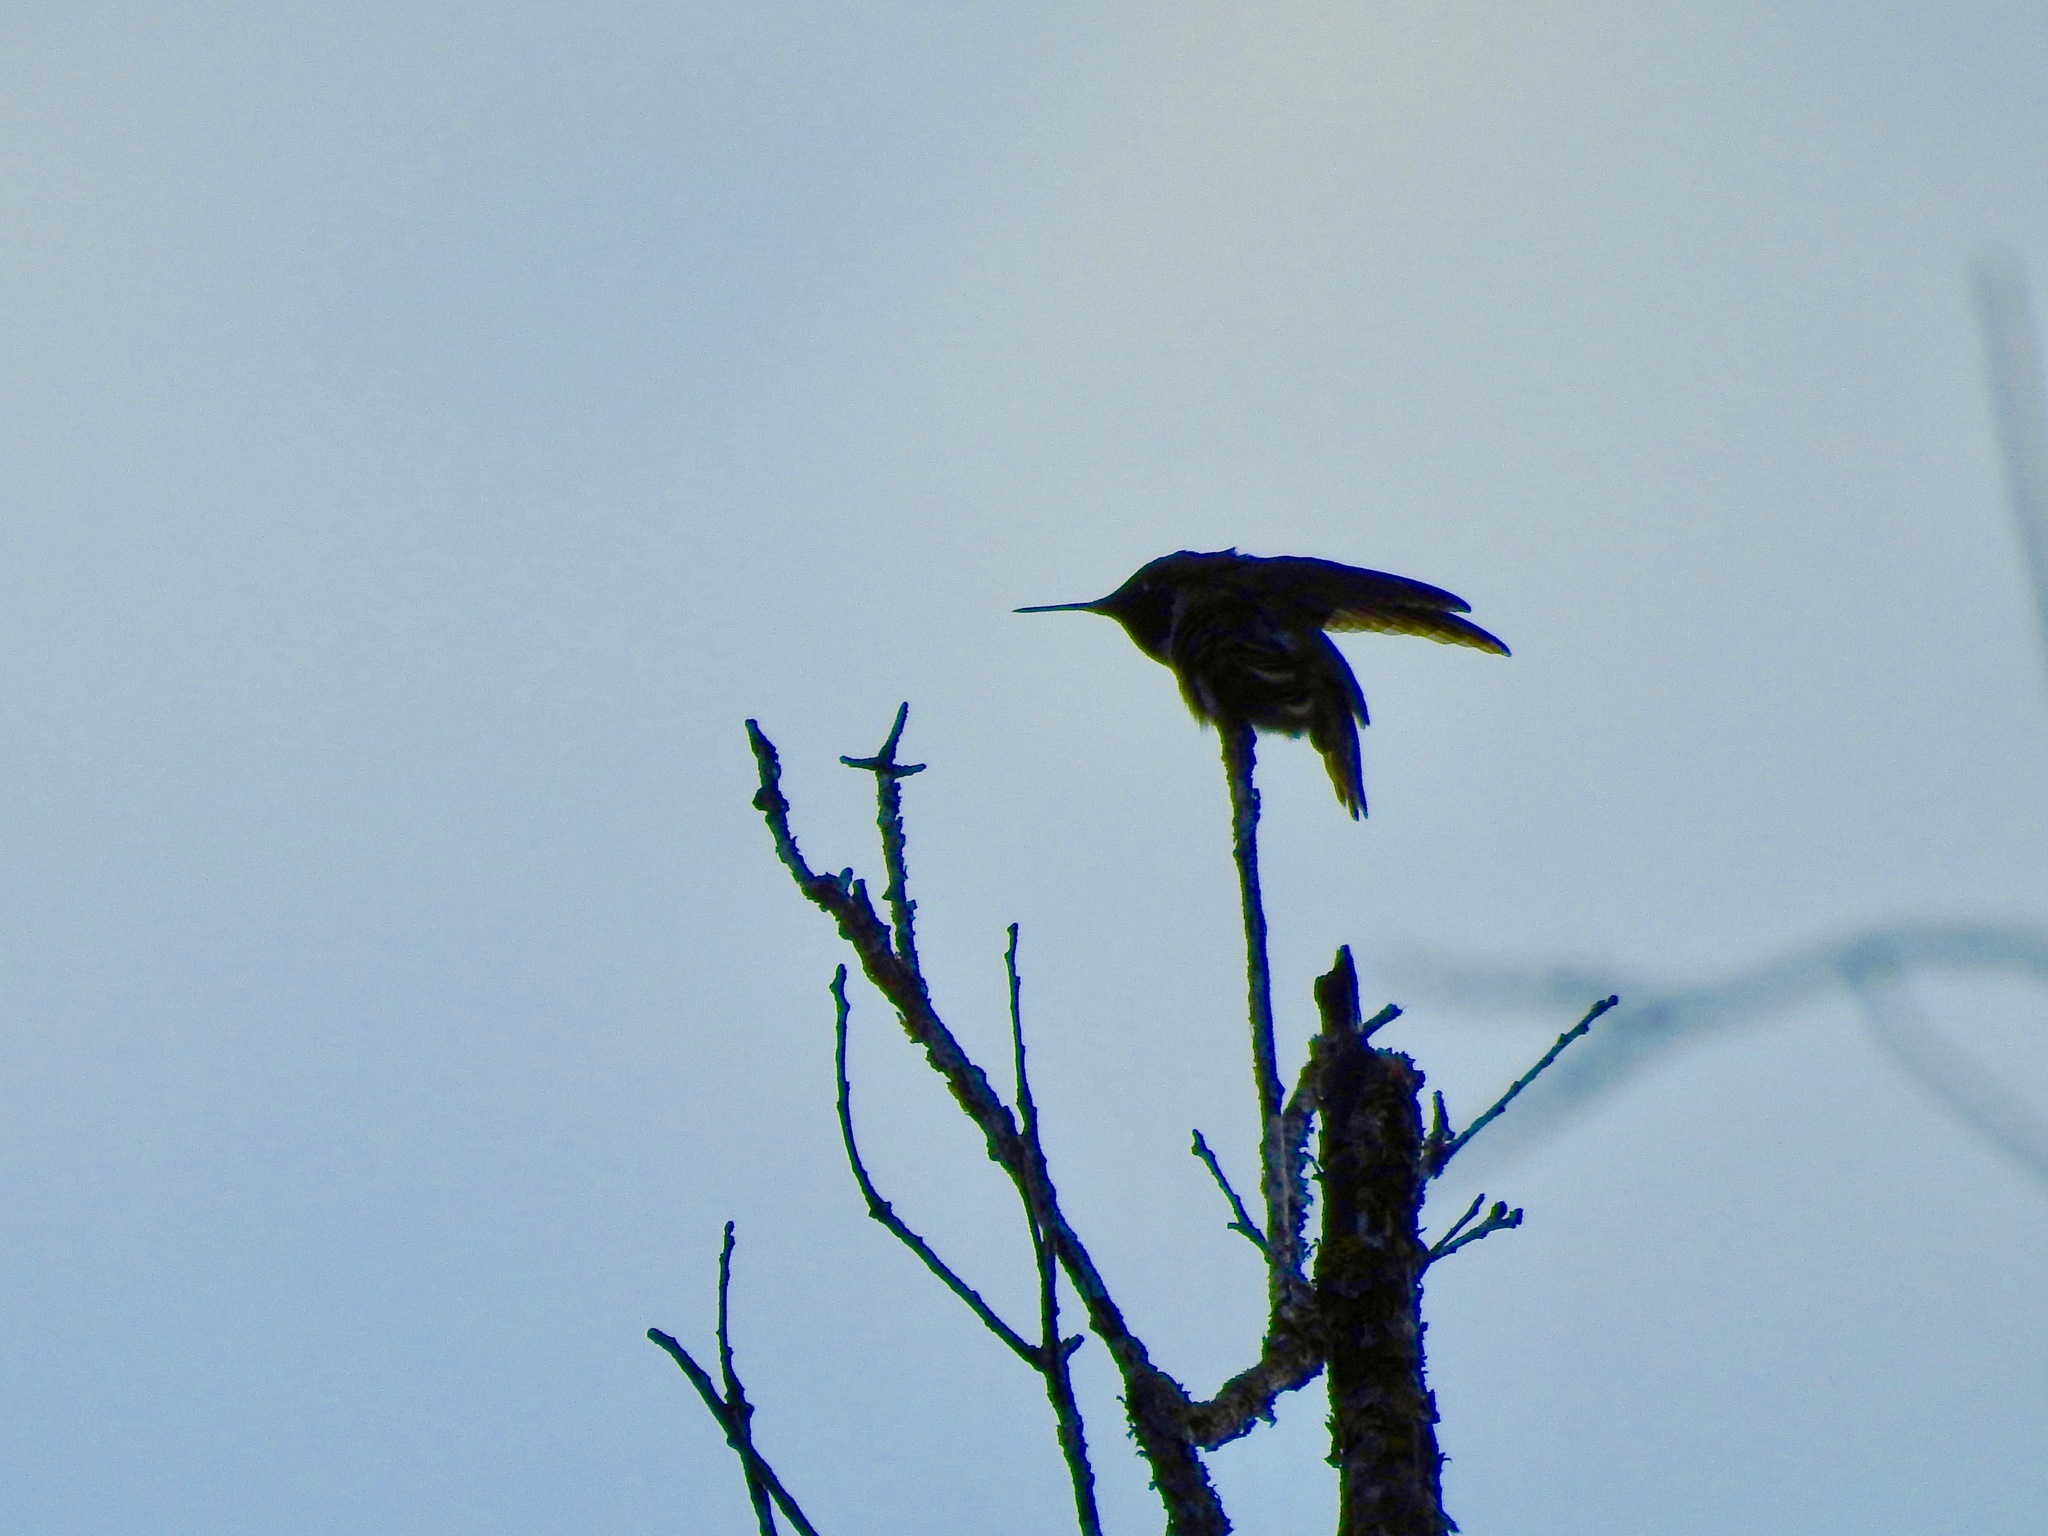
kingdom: Animalia
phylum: Chordata
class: Aves
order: Apodiformes
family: Trochilidae
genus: Calypte
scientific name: Calypte anna
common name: Anna's hummingbird
